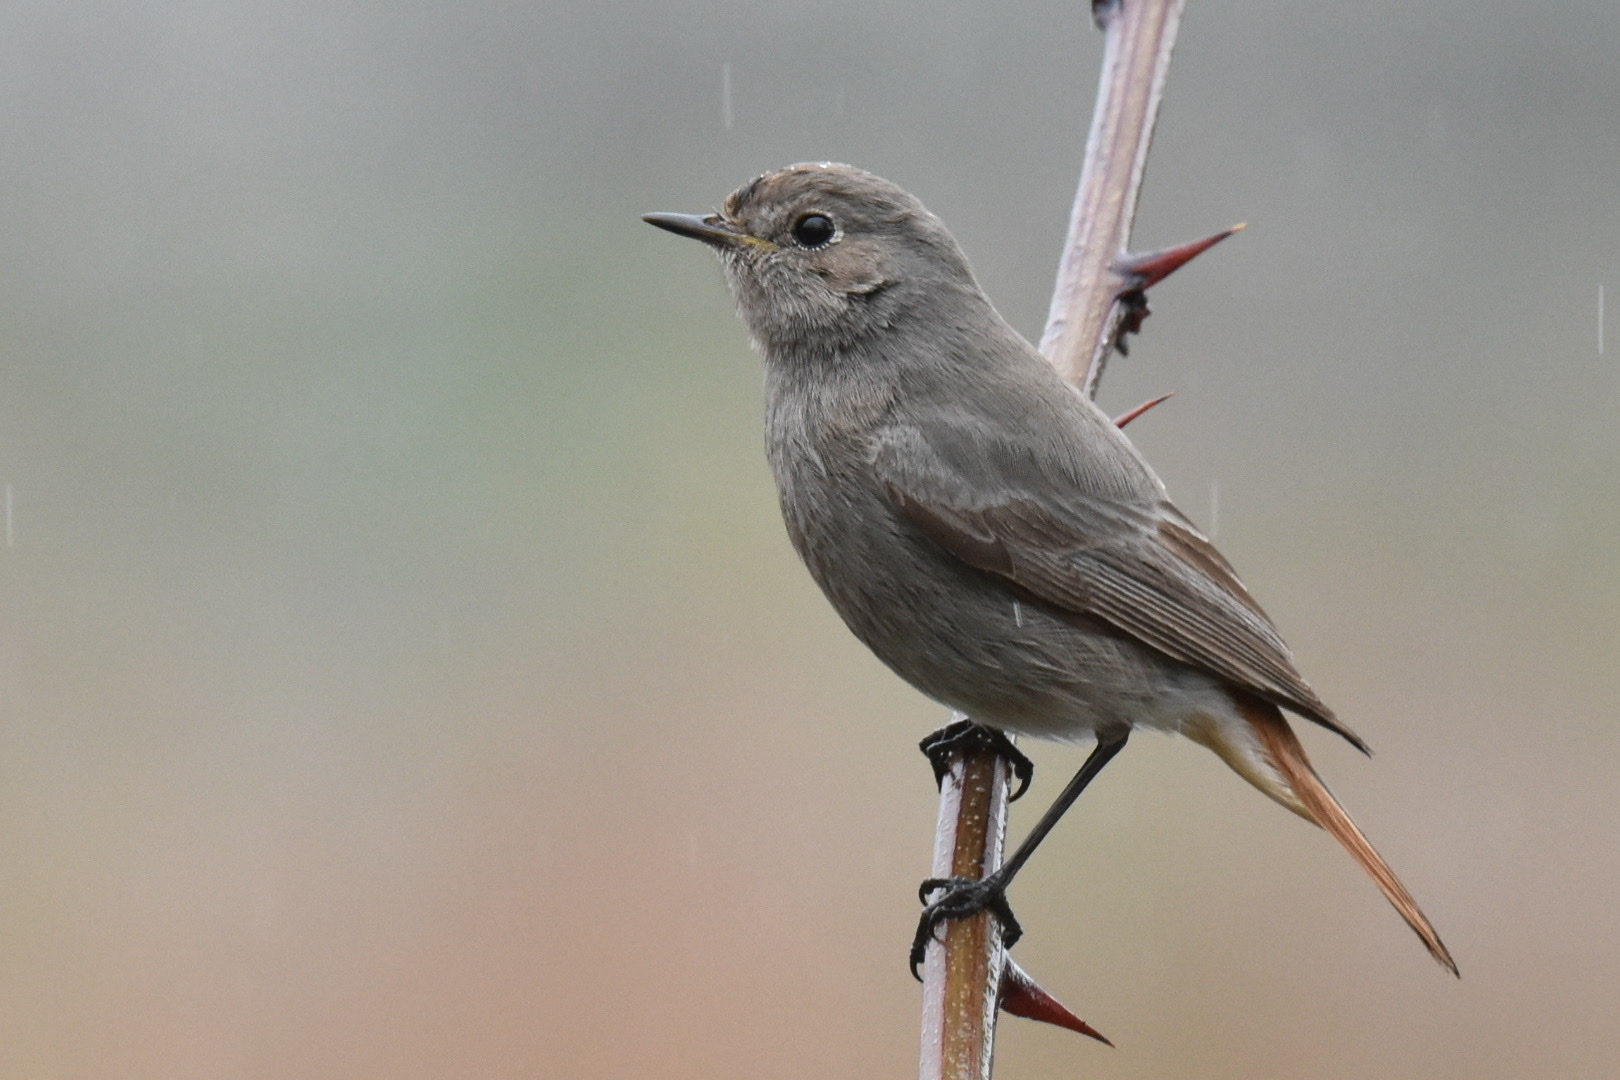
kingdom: Animalia
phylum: Chordata
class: Aves
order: Passeriformes
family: Muscicapidae
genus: Phoenicurus
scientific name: Phoenicurus ochruros
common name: Black redstart
